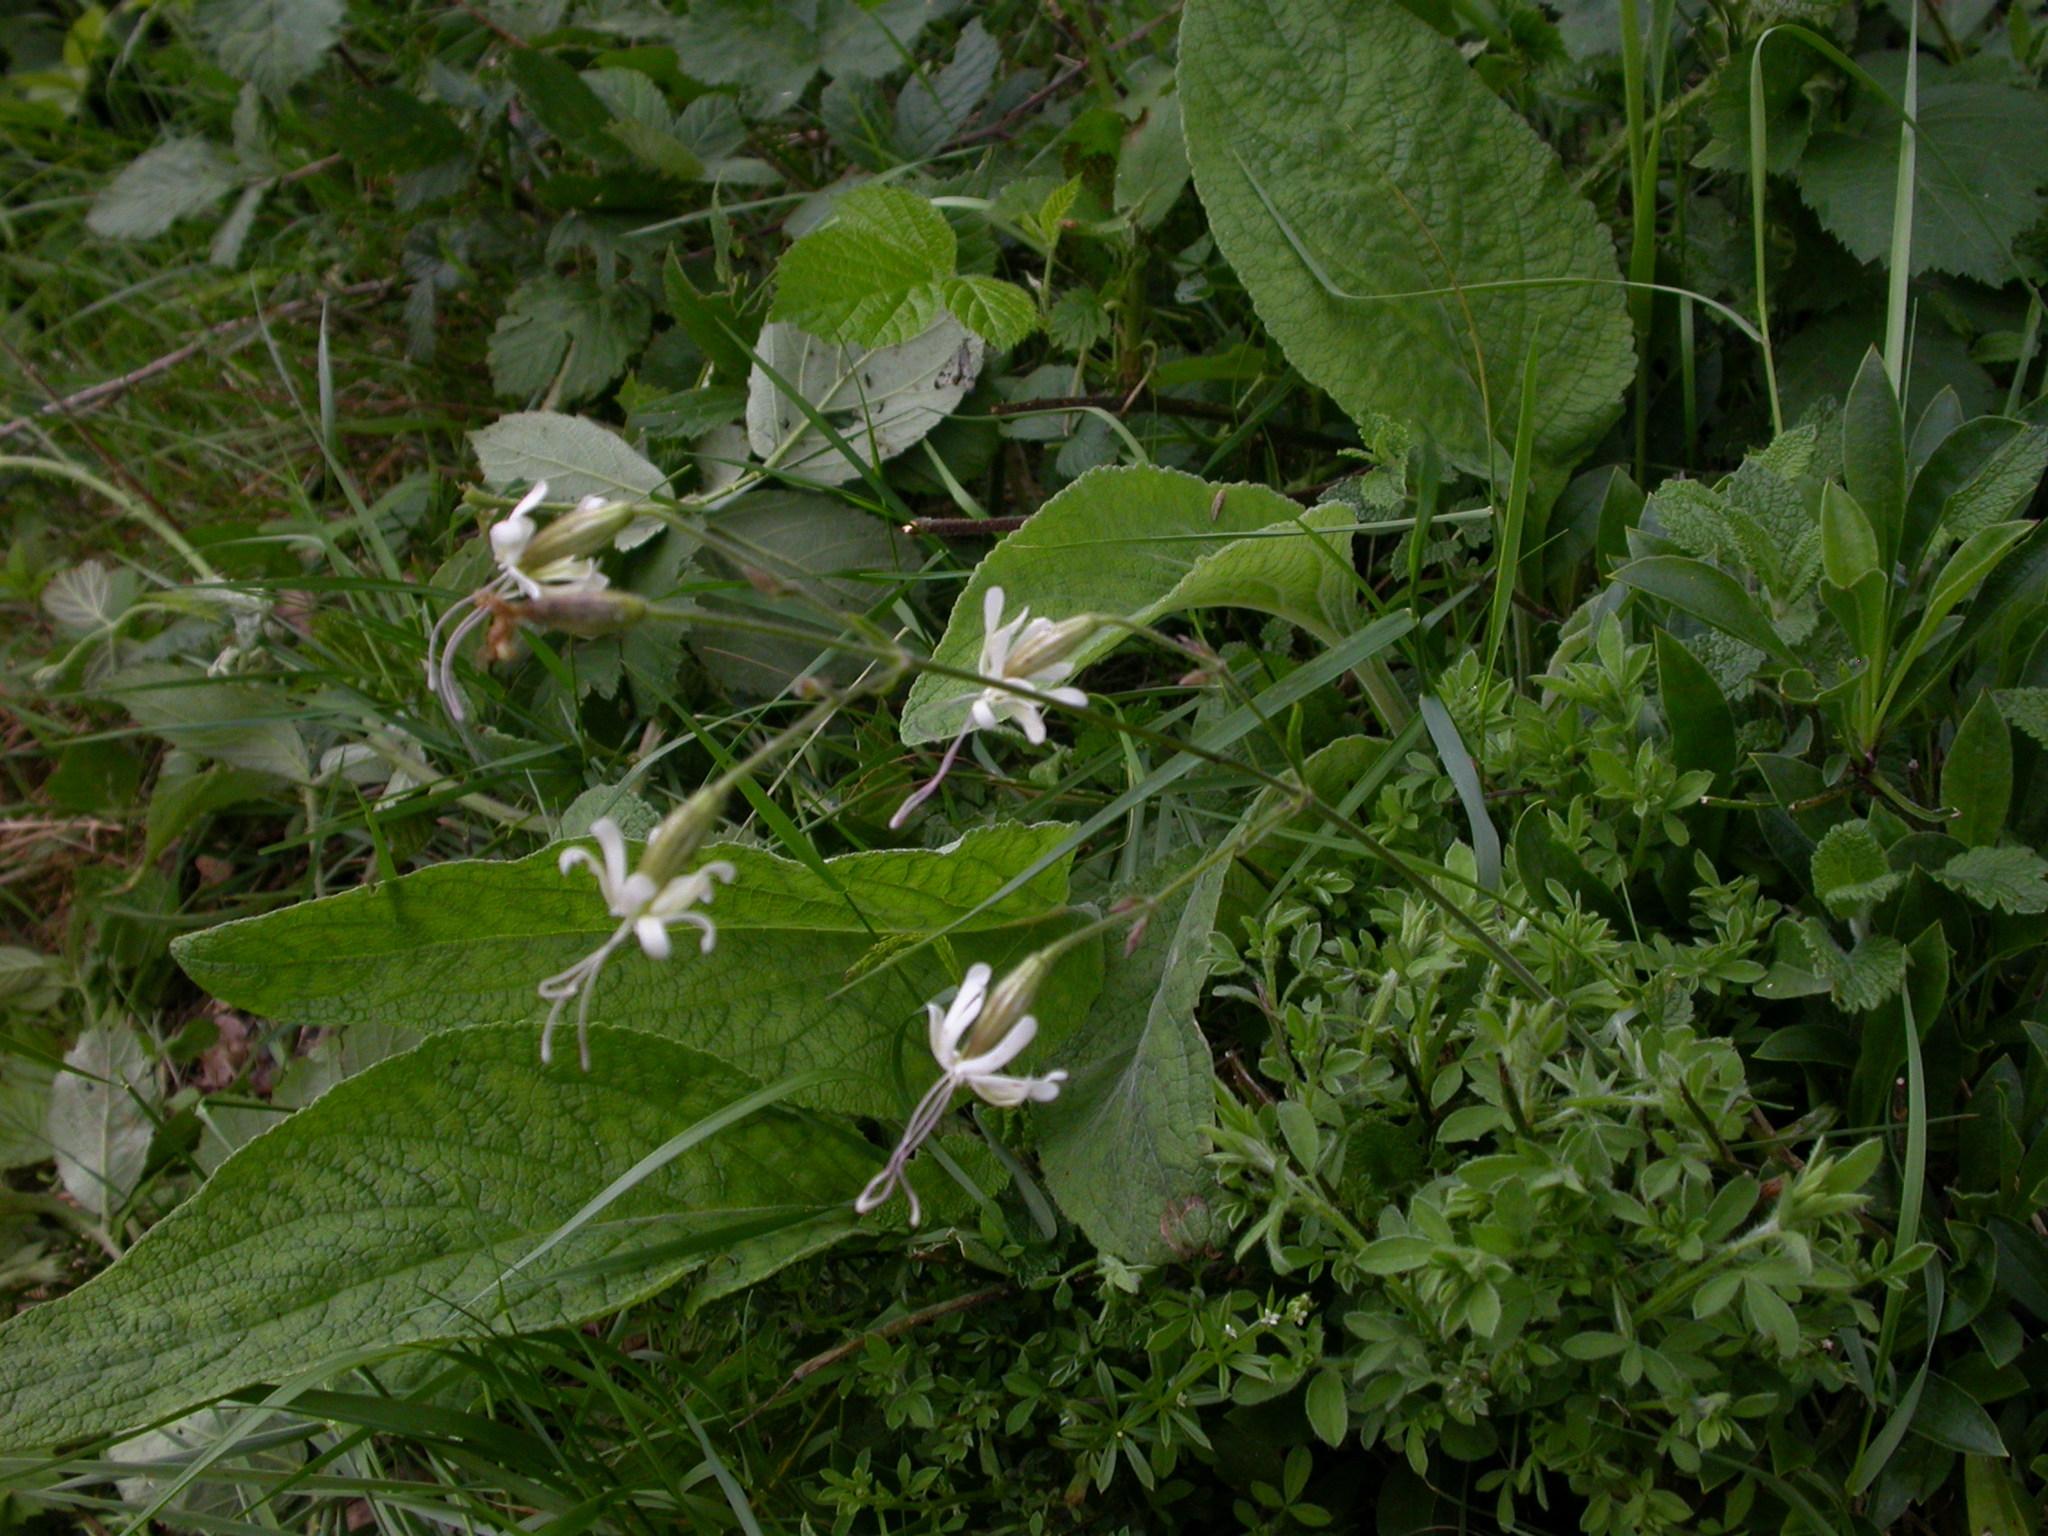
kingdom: Plantae
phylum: Tracheophyta
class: Magnoliopsida
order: Caryophyllales
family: Caryophyllaceae
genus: Silene
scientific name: Silene nutans
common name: Nottingham catchfly
